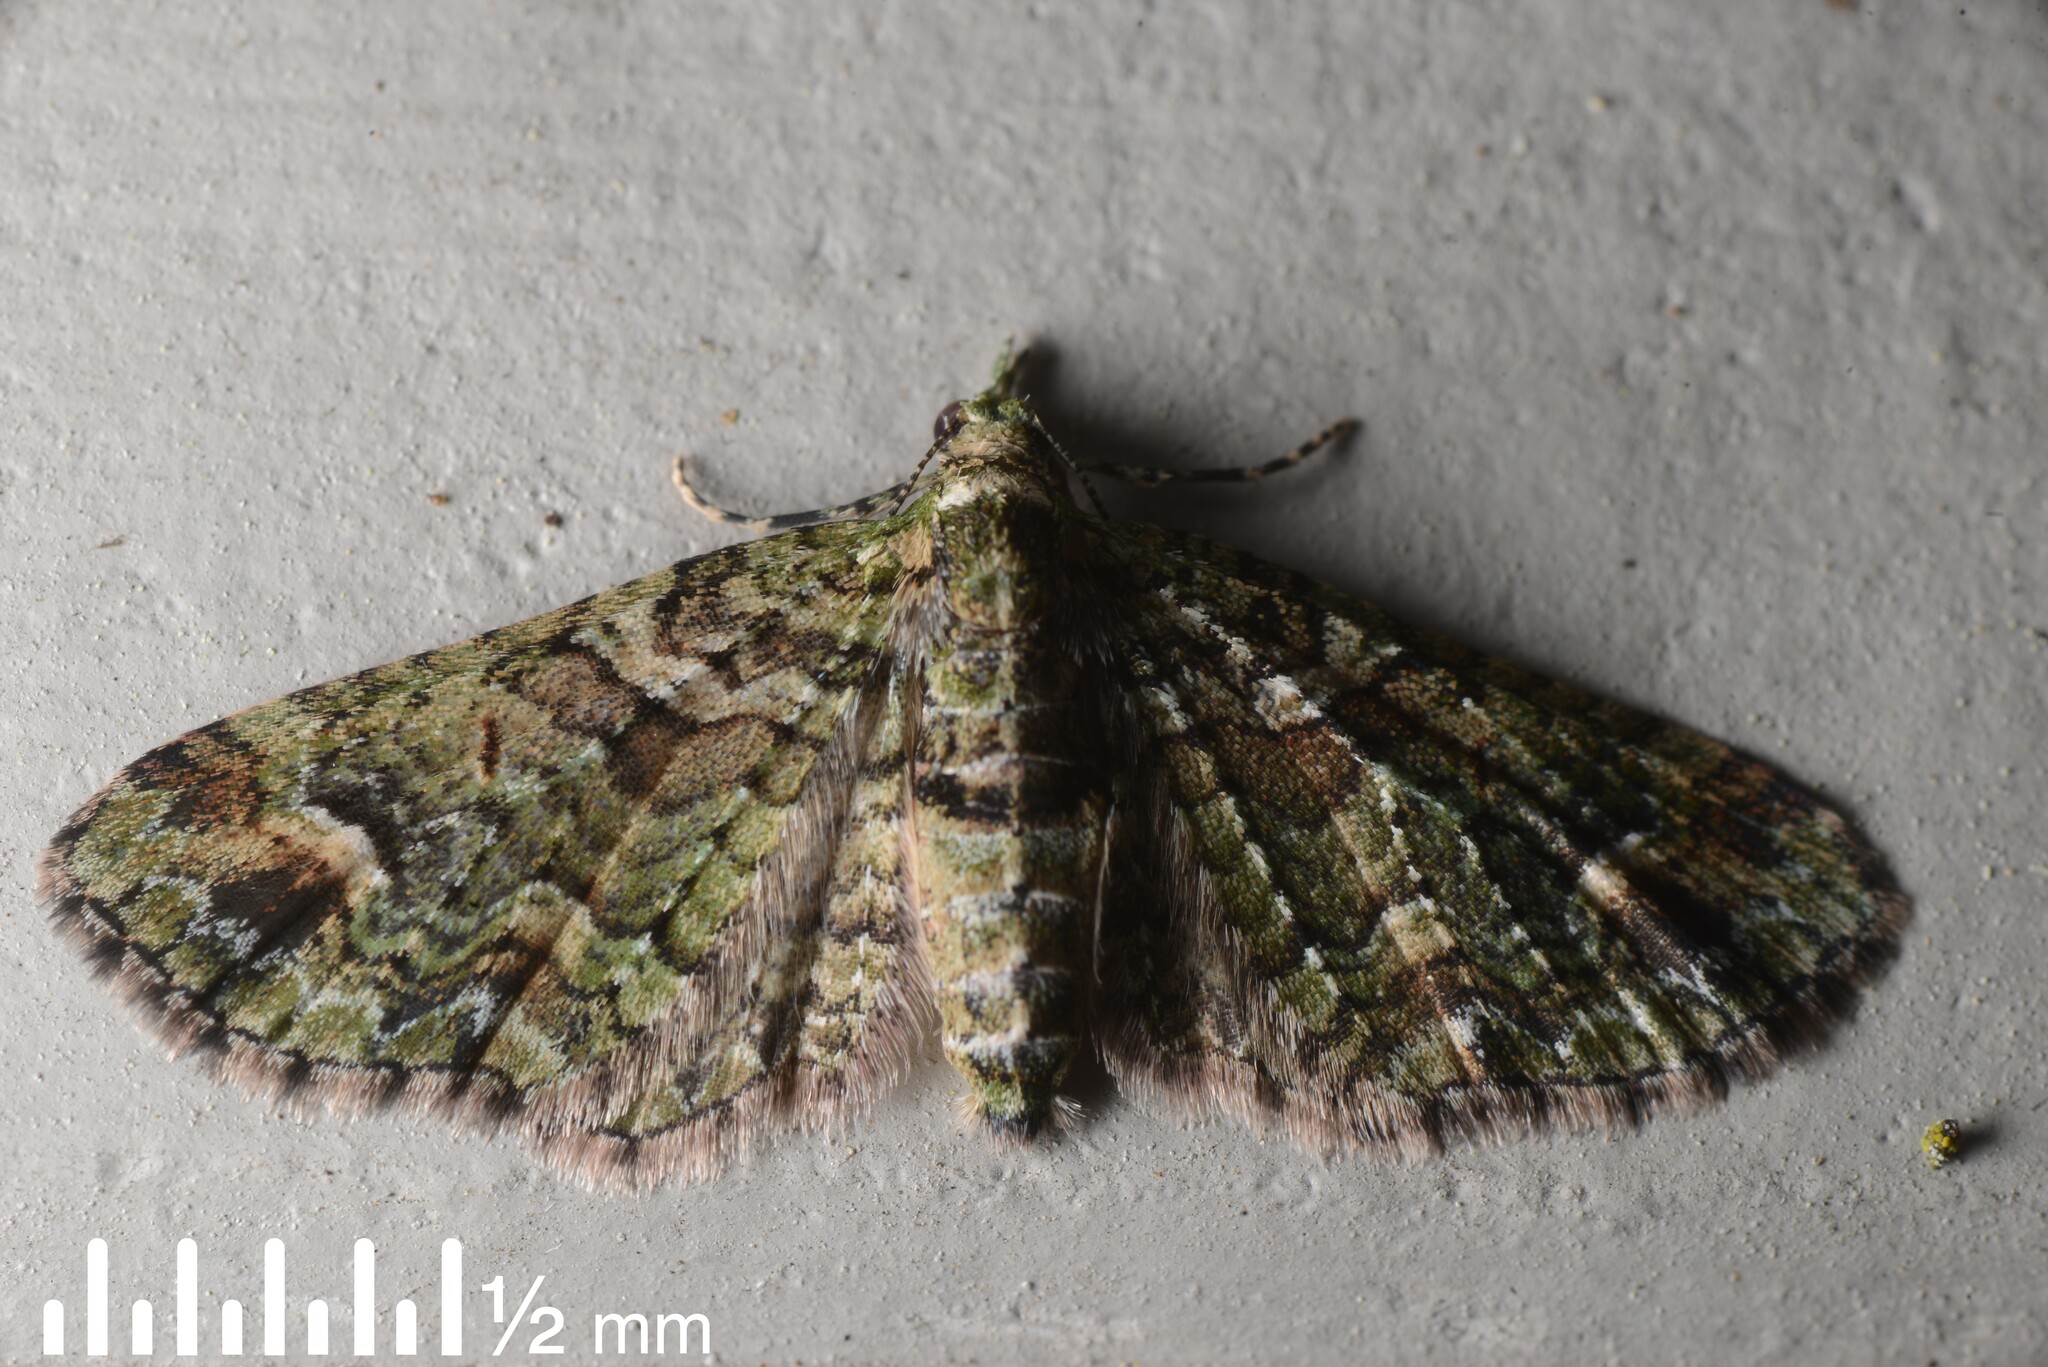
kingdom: Animalia
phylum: Arthropoda
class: Insecta
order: Lepidoptera
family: Geometridae
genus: Idaea
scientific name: Idaea mutanda
